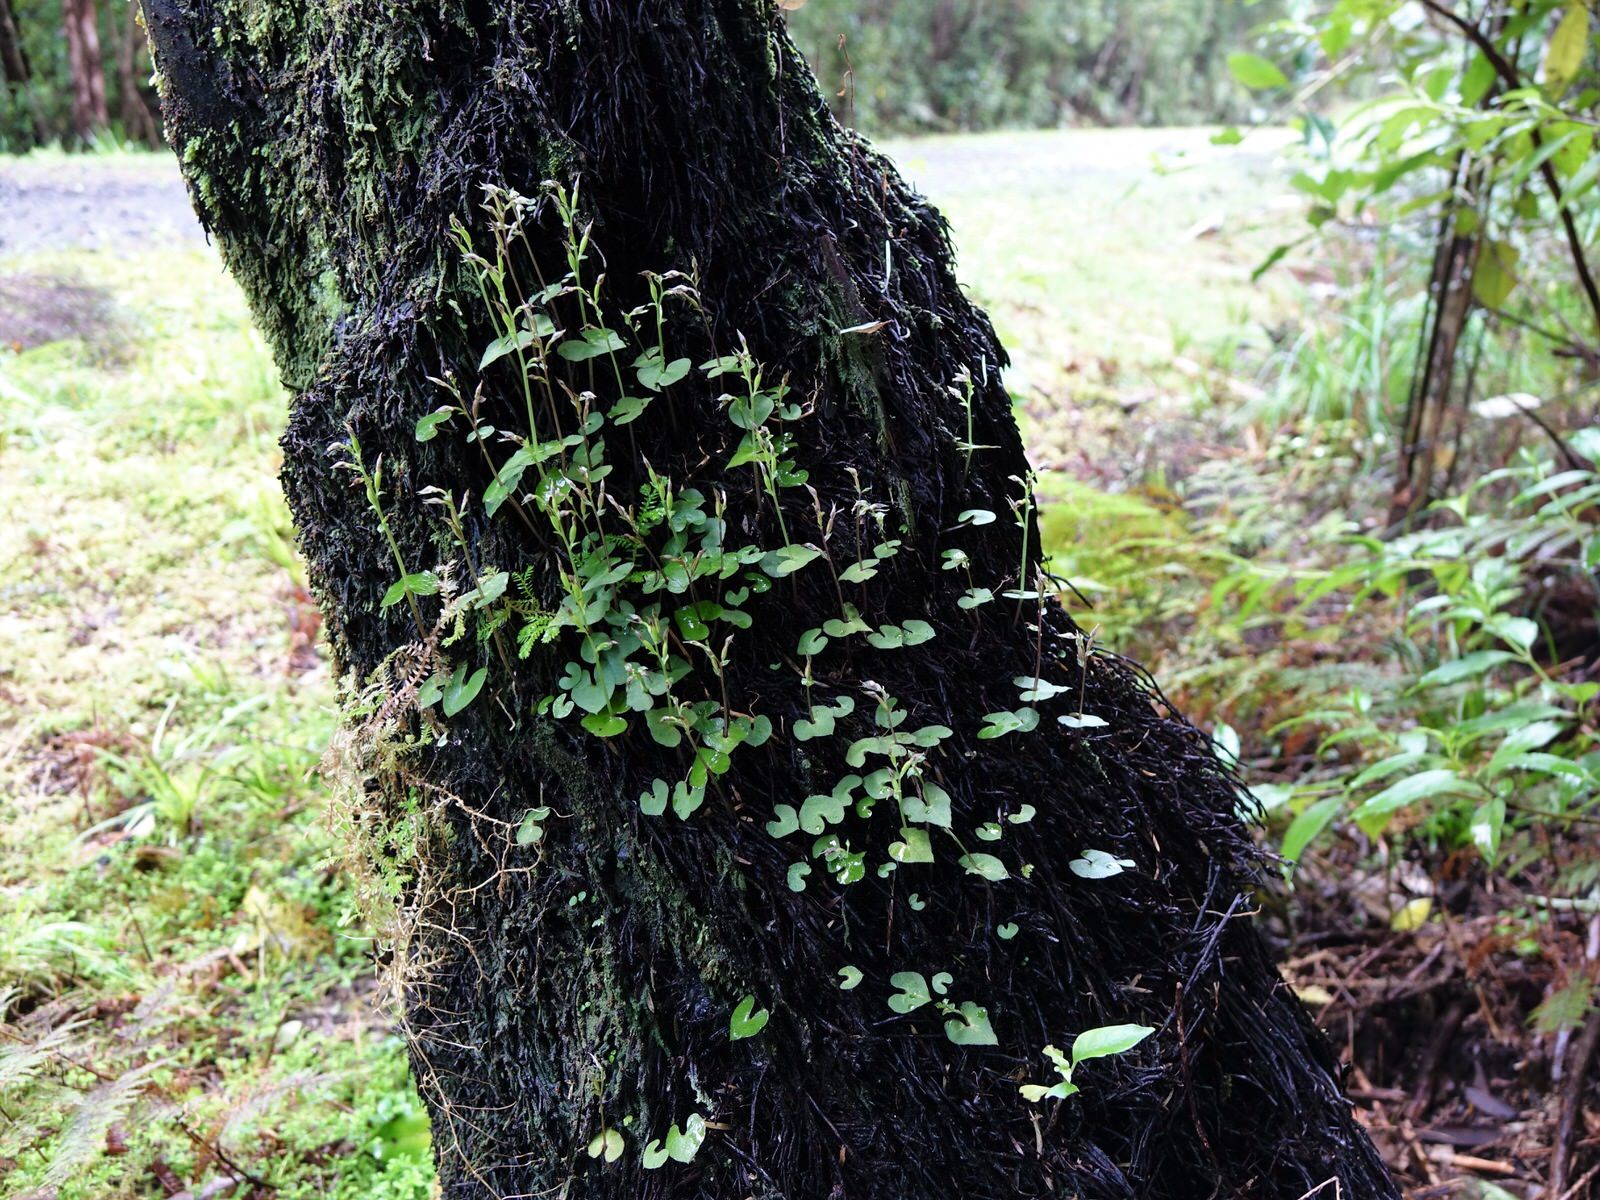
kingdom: Plantae
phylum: Tracheophyta
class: Liliopsida
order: Asparagales
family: Orchidaceae
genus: Acianthus
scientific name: Acianthus sinclairii
